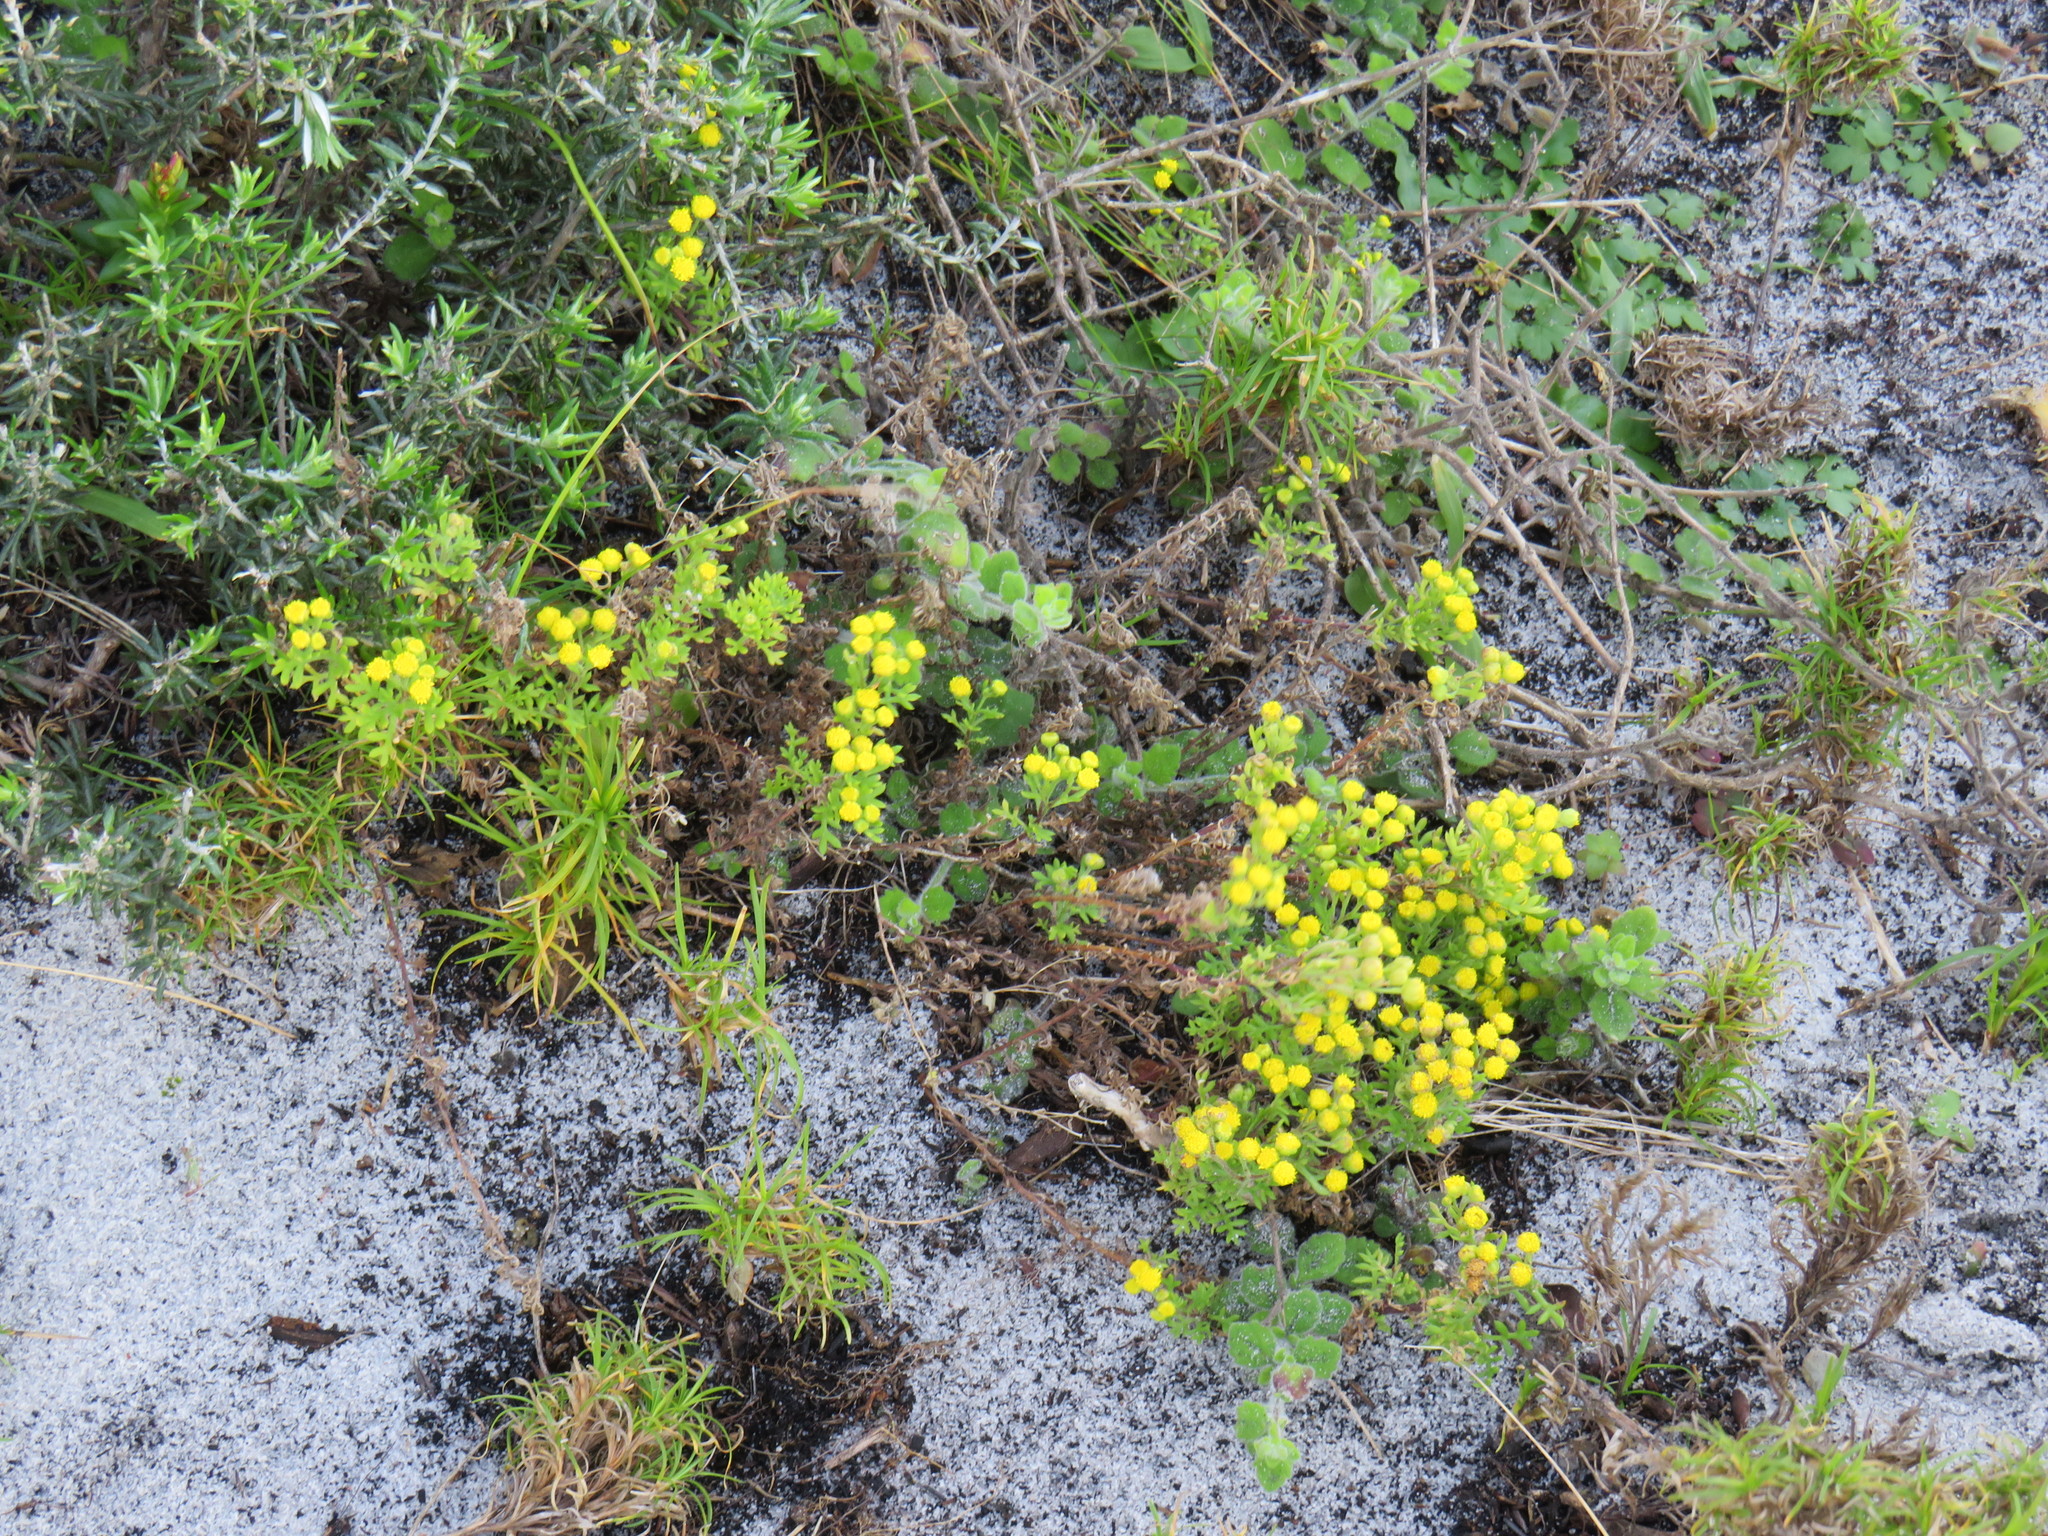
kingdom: Plantae
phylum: Tracheophyta
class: Magnoliopsida
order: Asterales
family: Asteraceae
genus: Hippia
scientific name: Hippia pilosa
